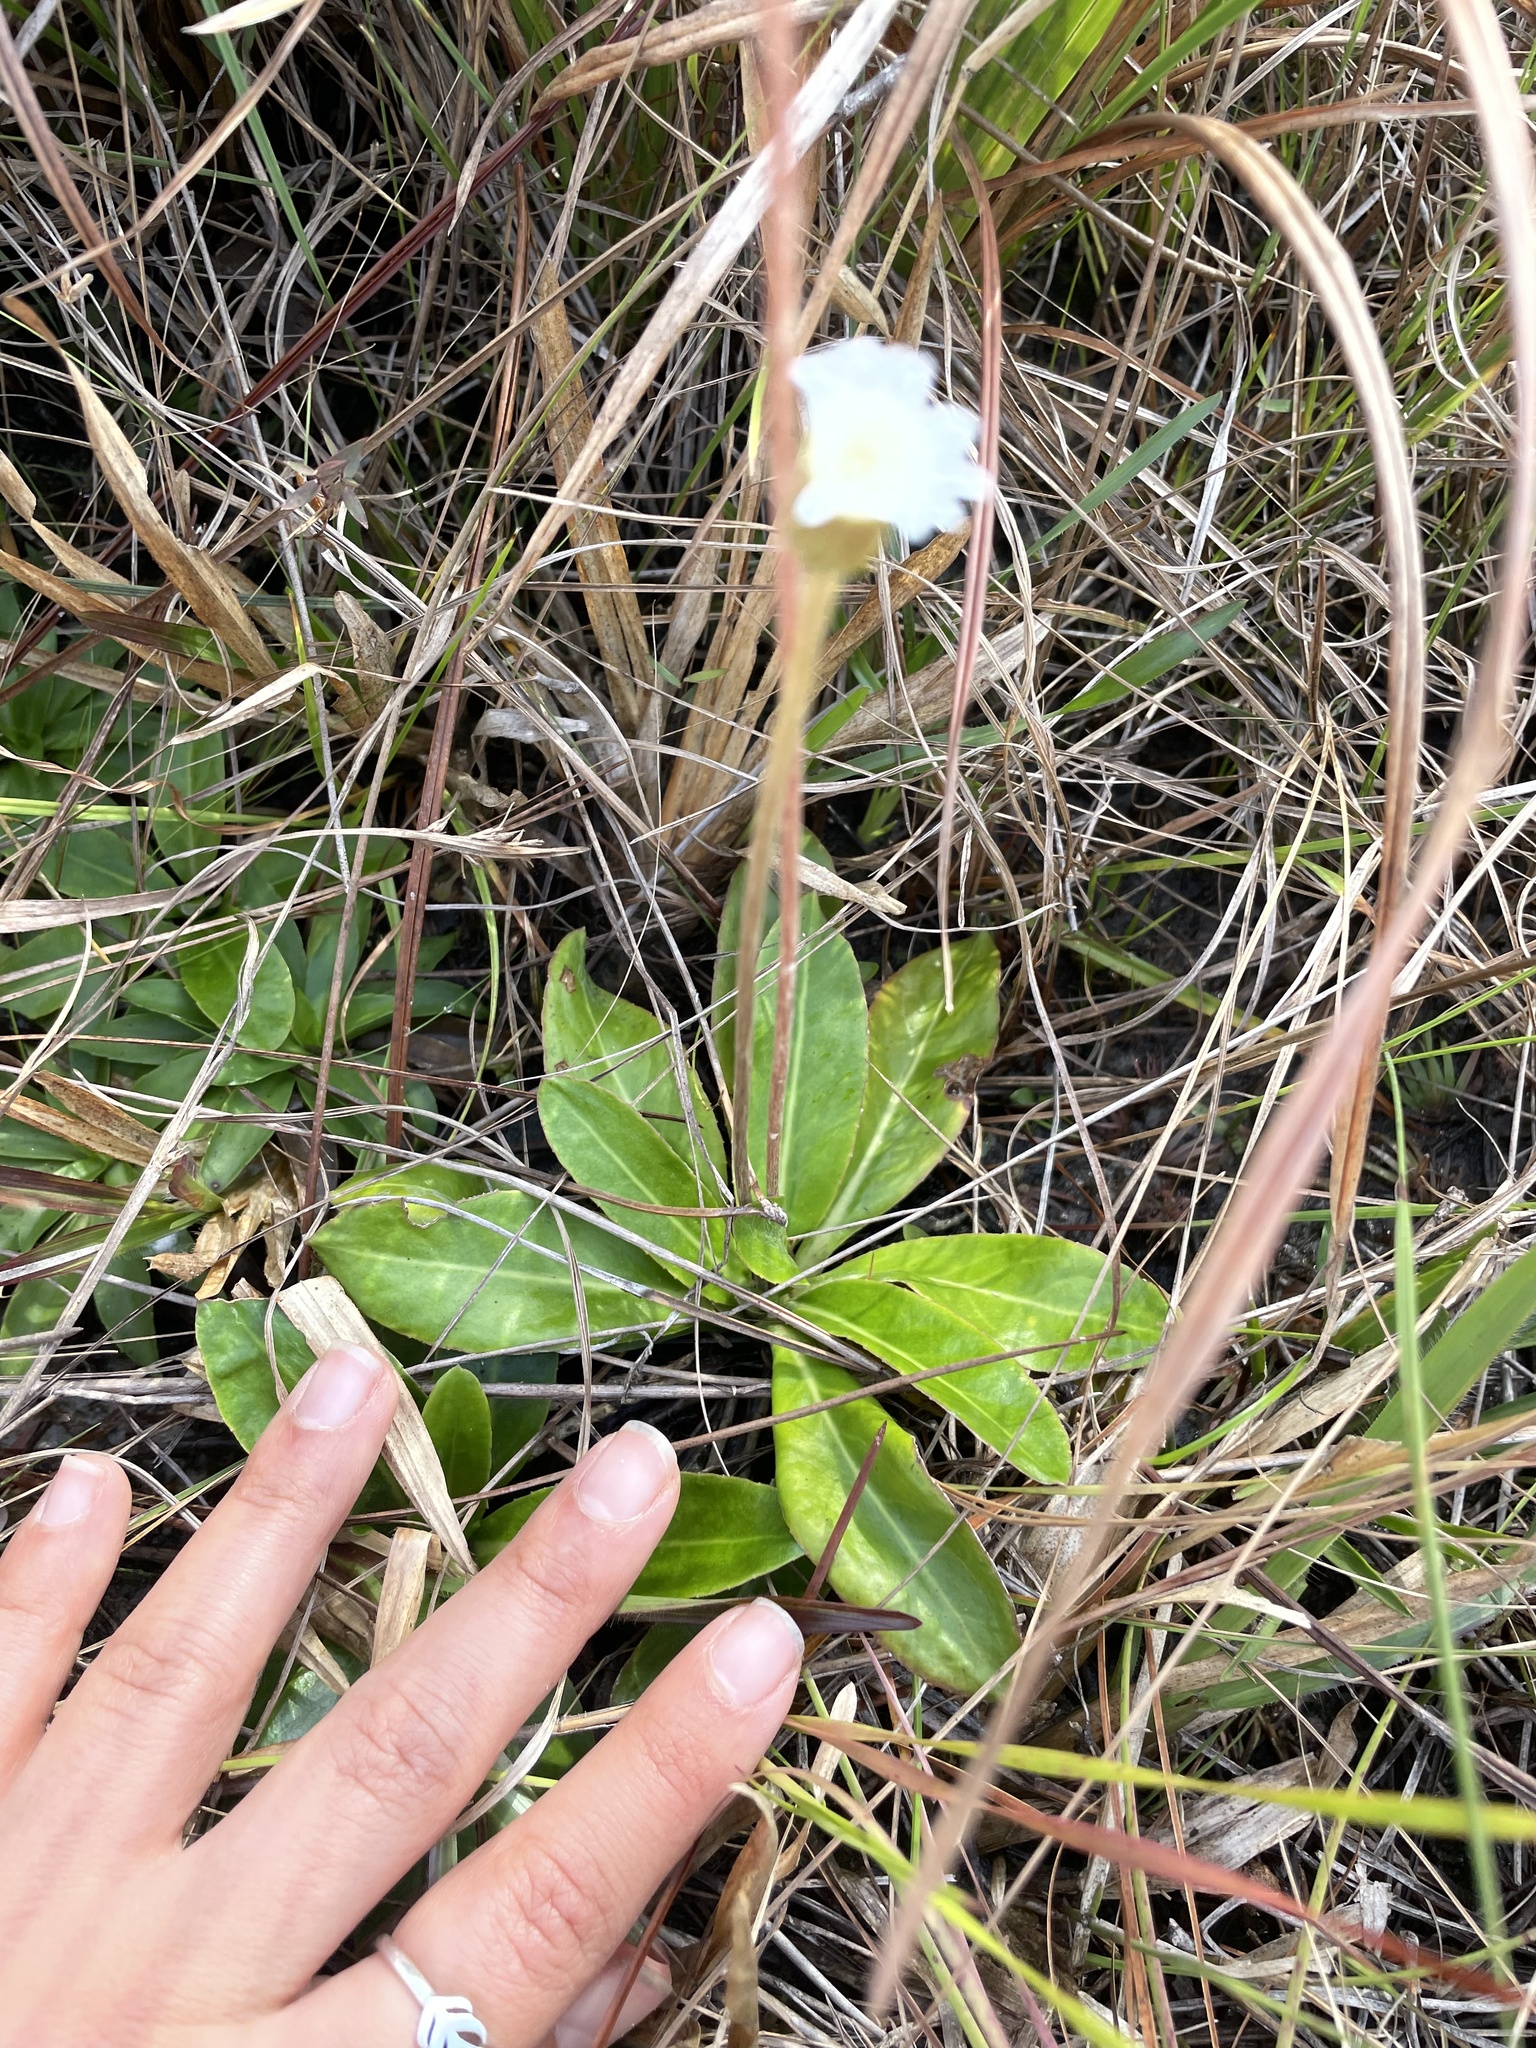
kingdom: Plantae
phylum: Tracheophyta
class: Magnoliopsida
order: Asterales
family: Asteraceae
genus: Chaptalia
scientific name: Chaptalia tomentosa
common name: Woolly sunbonnet
